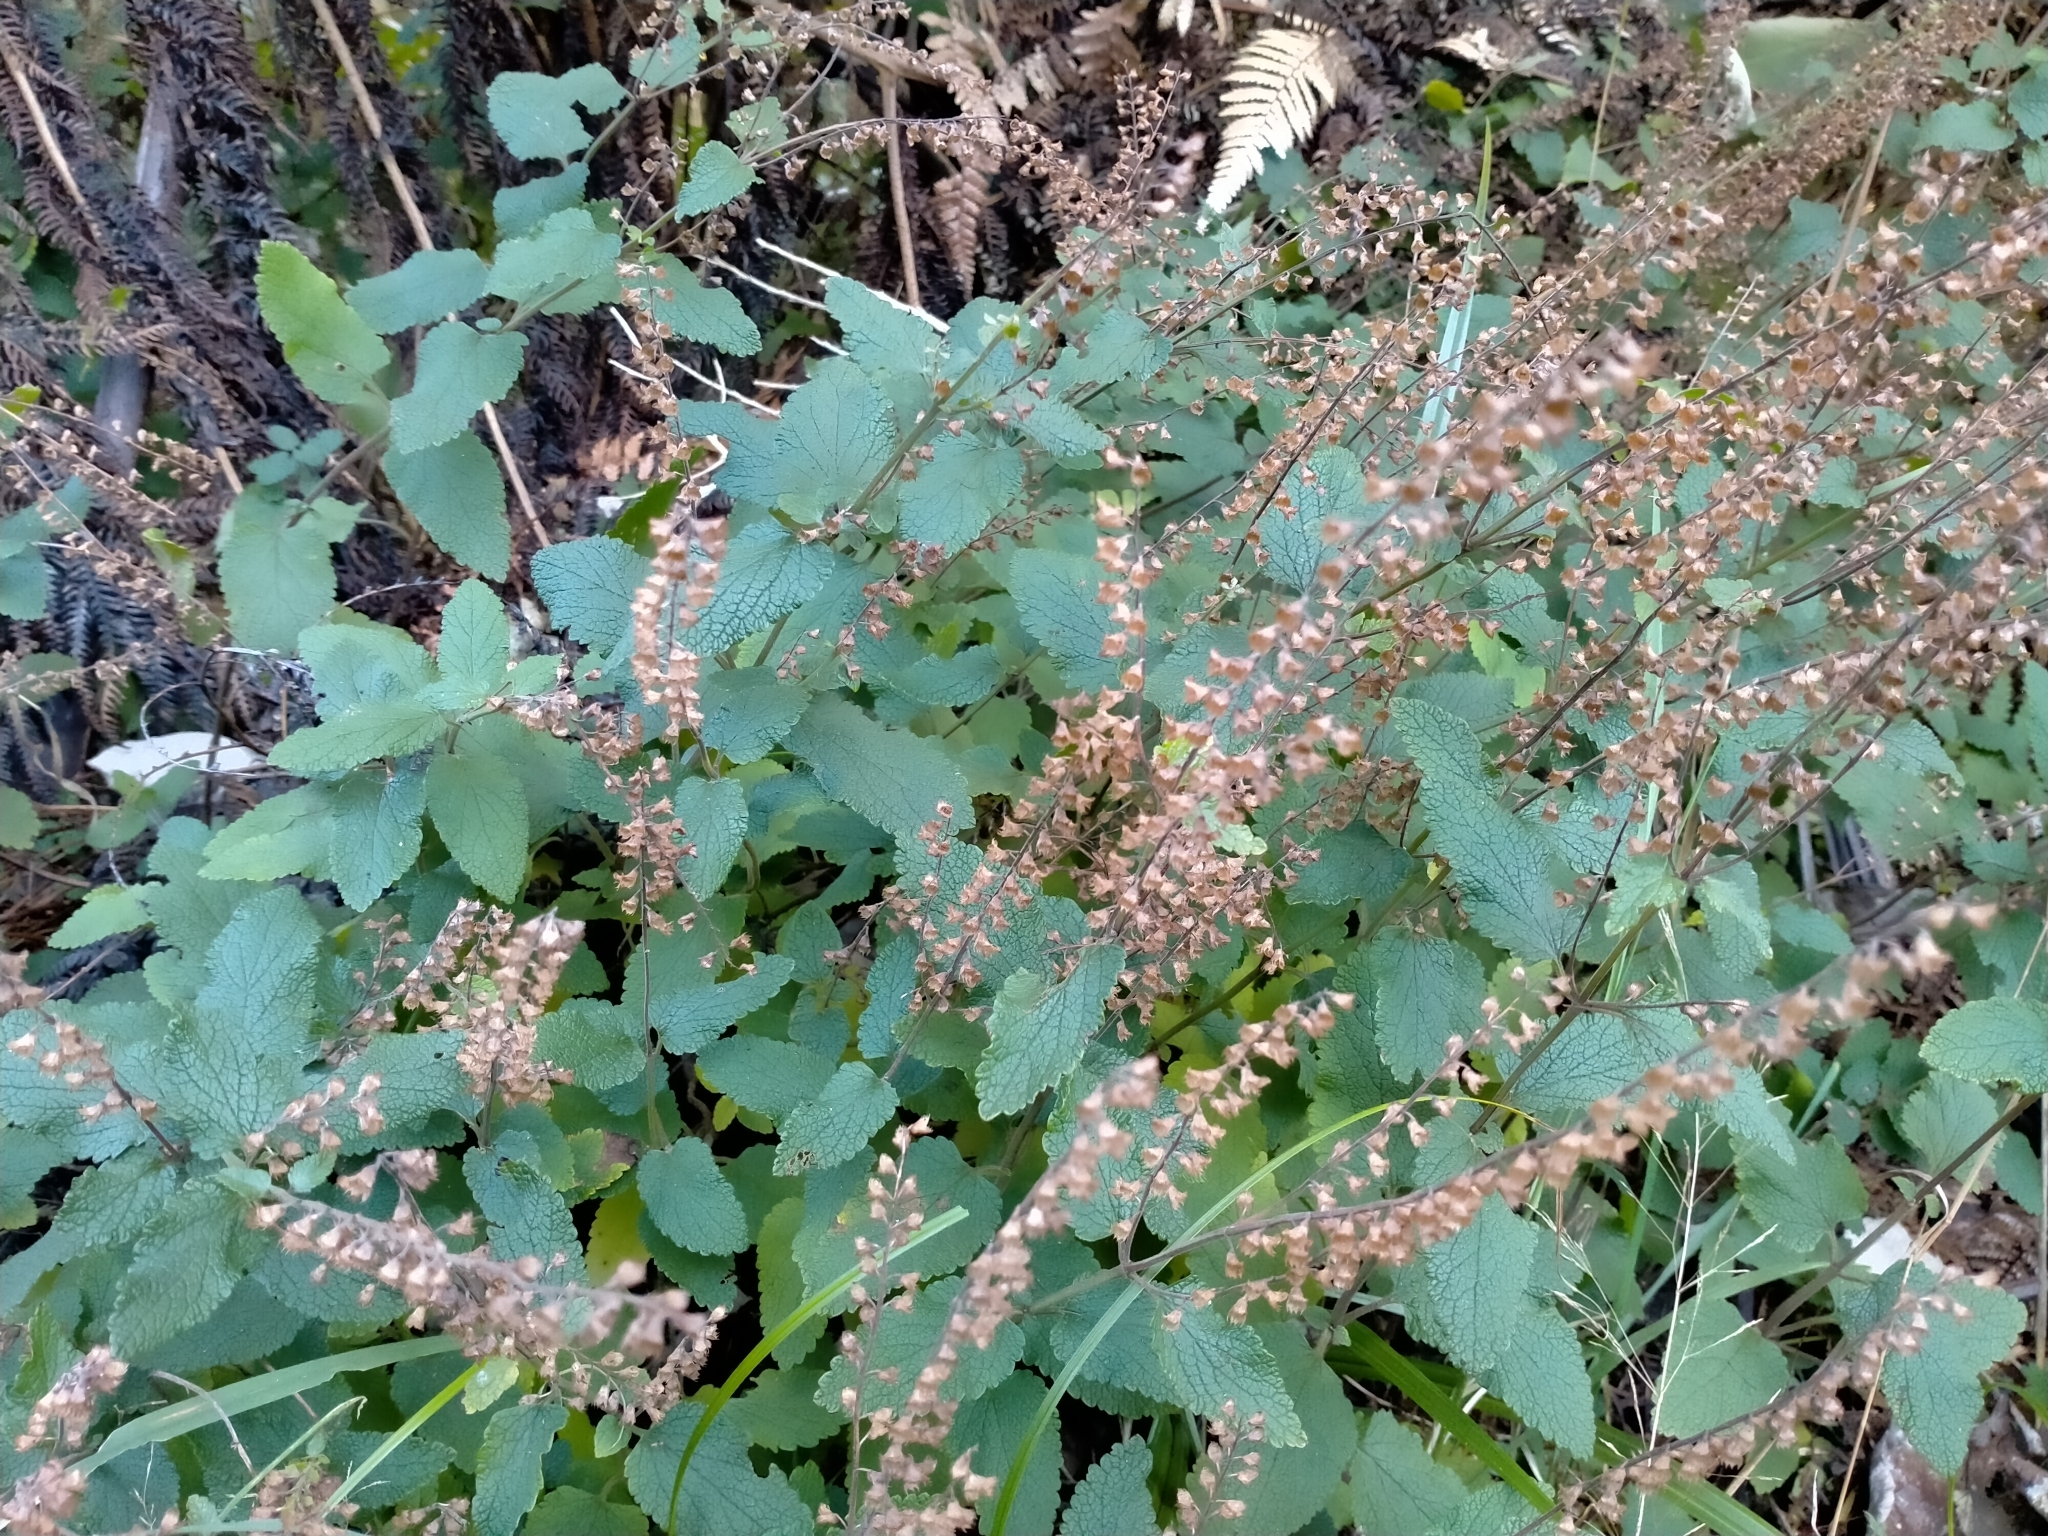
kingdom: Plantae
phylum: Tracheophyta
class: Magnoliopsida
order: Lamiales
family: Lamiaceae
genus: Teucrium
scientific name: Teucrium scorodonia
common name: Woodland germander
